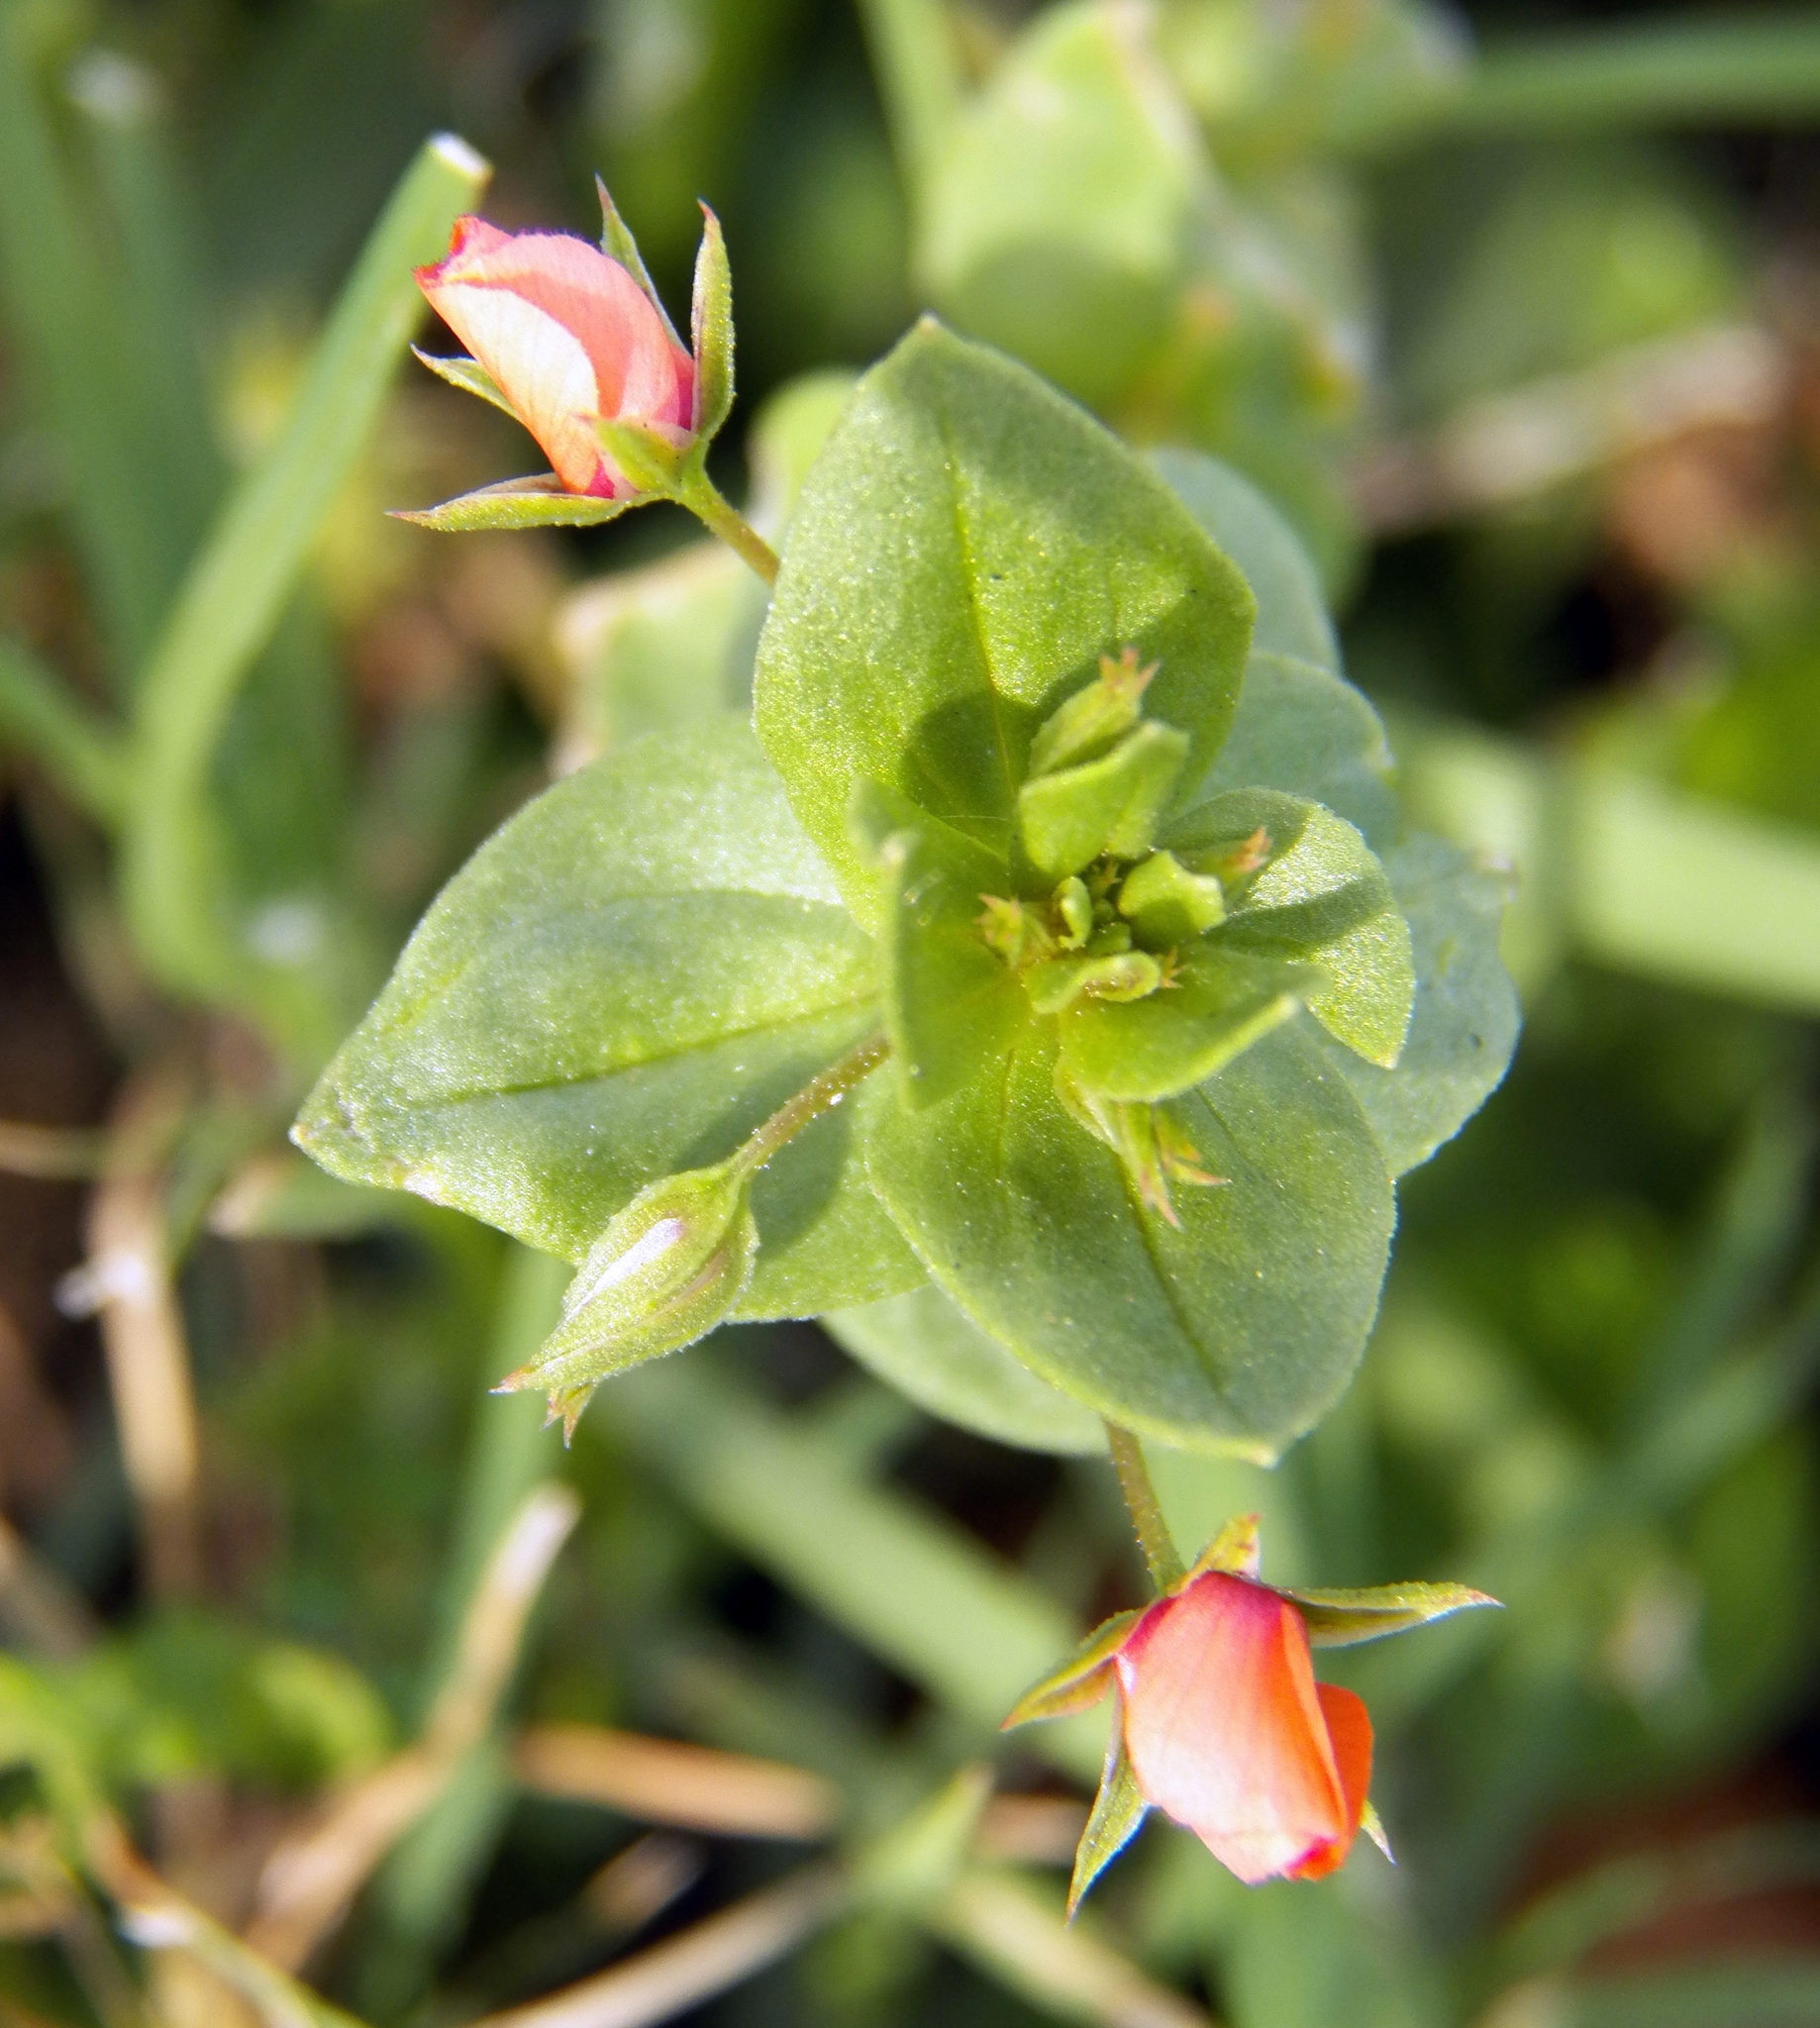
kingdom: Plantae
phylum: Tracheophyta
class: Magnoliopsida
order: Ericales
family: Primulaceae
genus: Lysimachia
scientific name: Lysimachia arvensis
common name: Scarlet pimpernel
